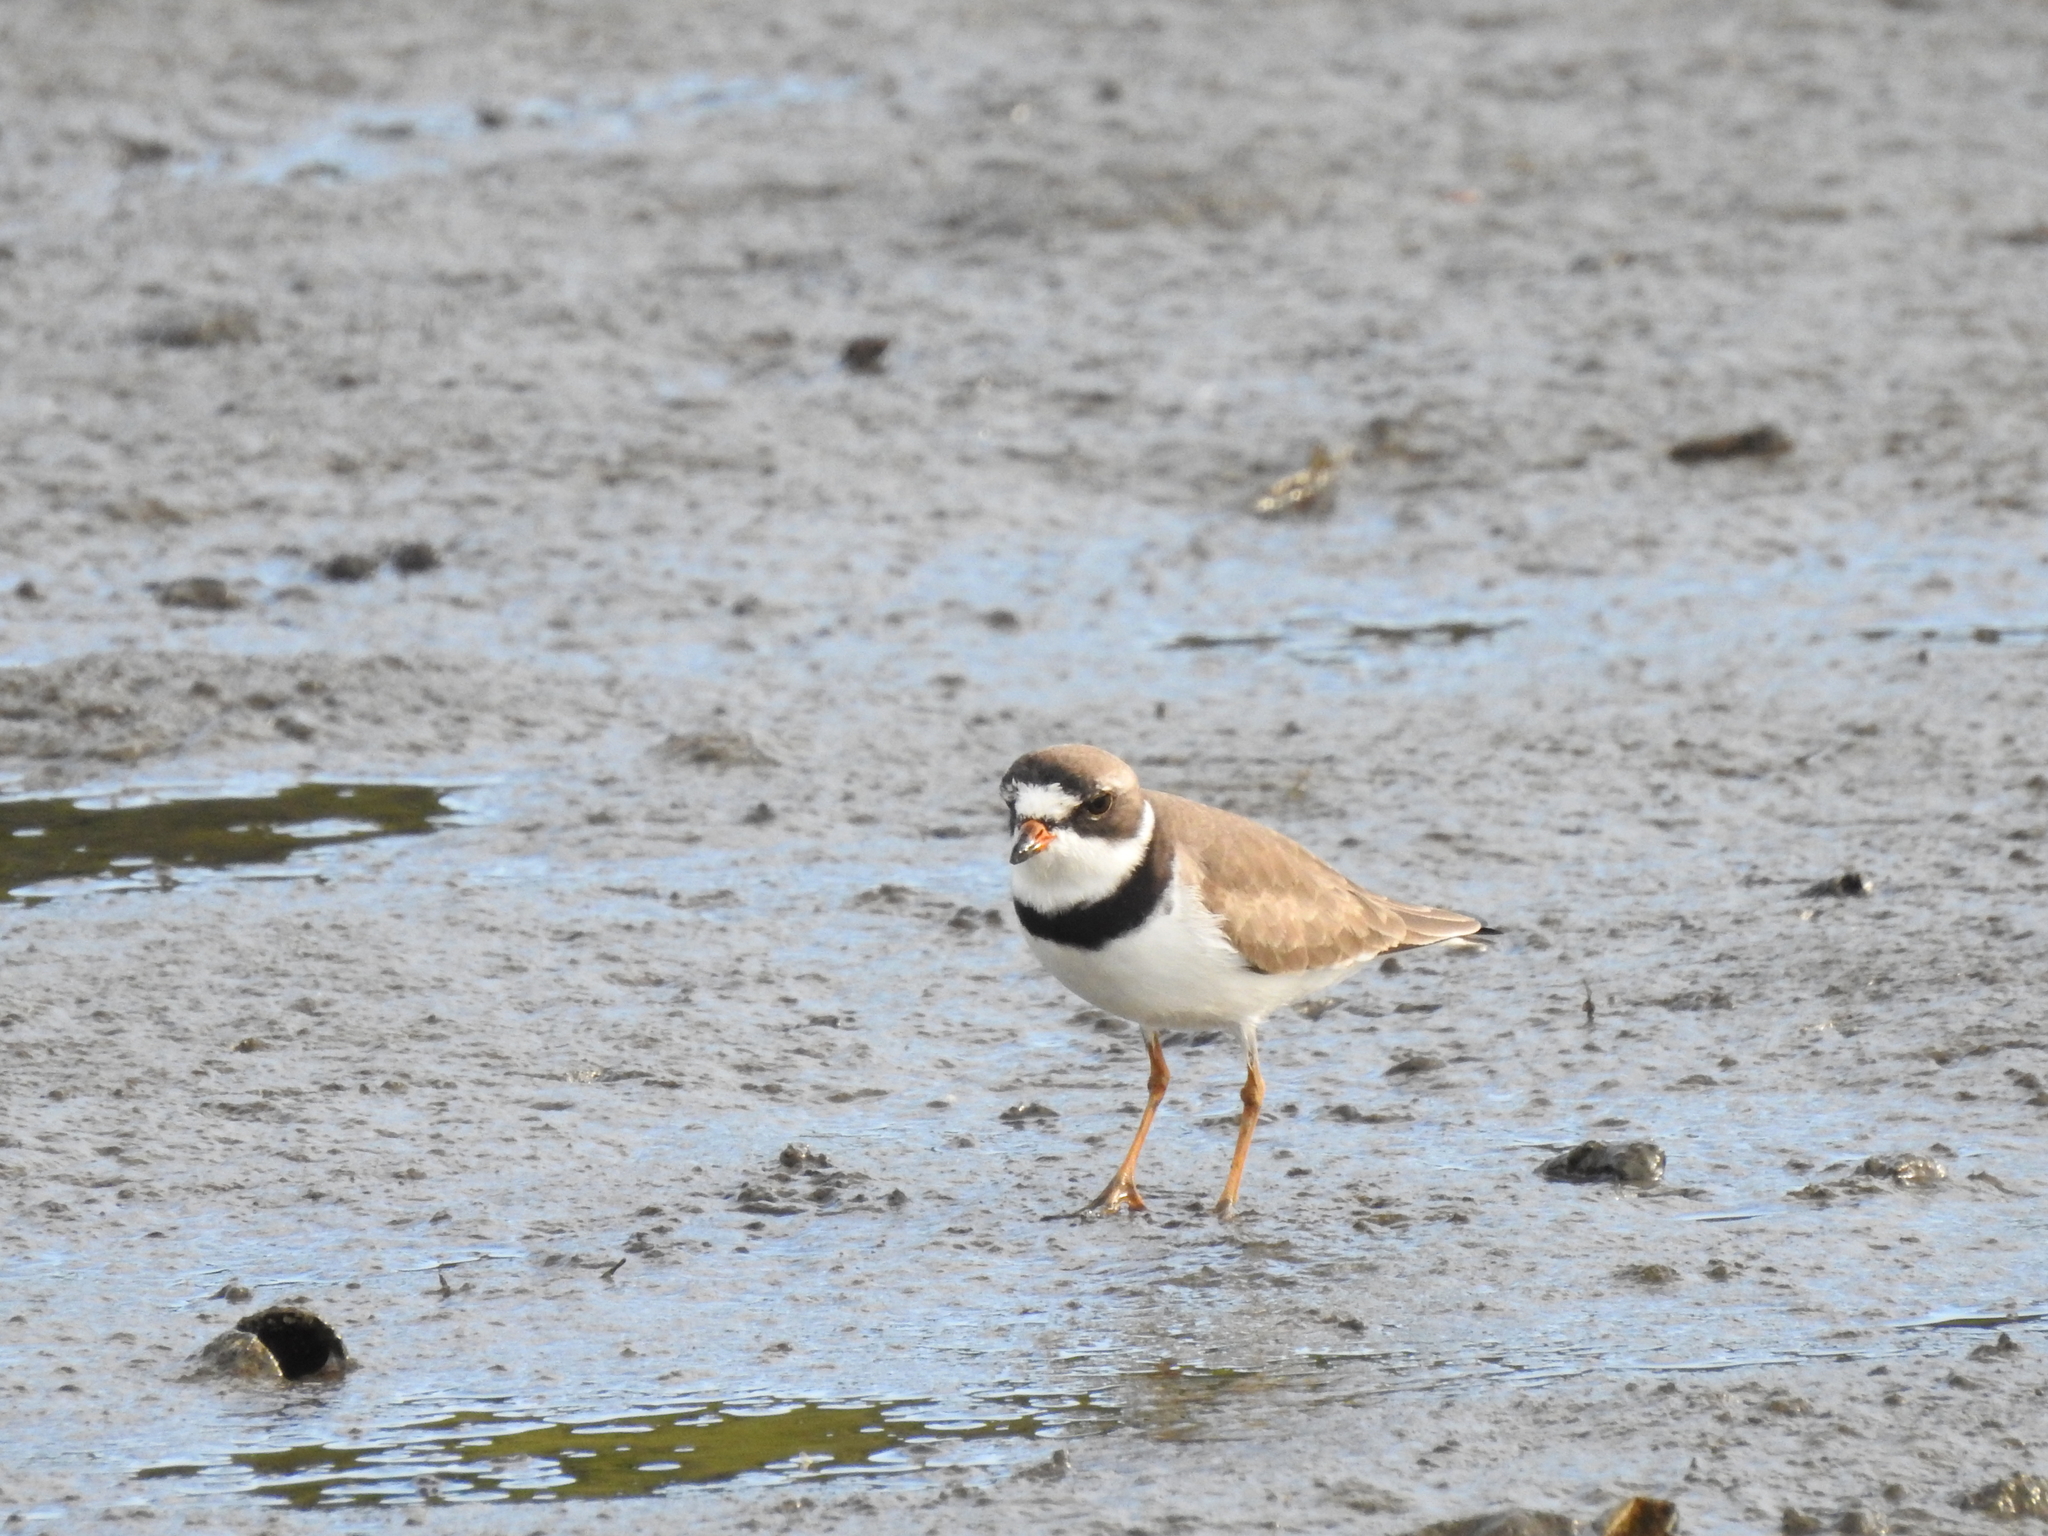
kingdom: Animalia
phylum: Chordata
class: Aves
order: Charadriiformes
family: Charadriidae
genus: Charadrius
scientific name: Charadrius semipalmatus
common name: Semipalmated plover
